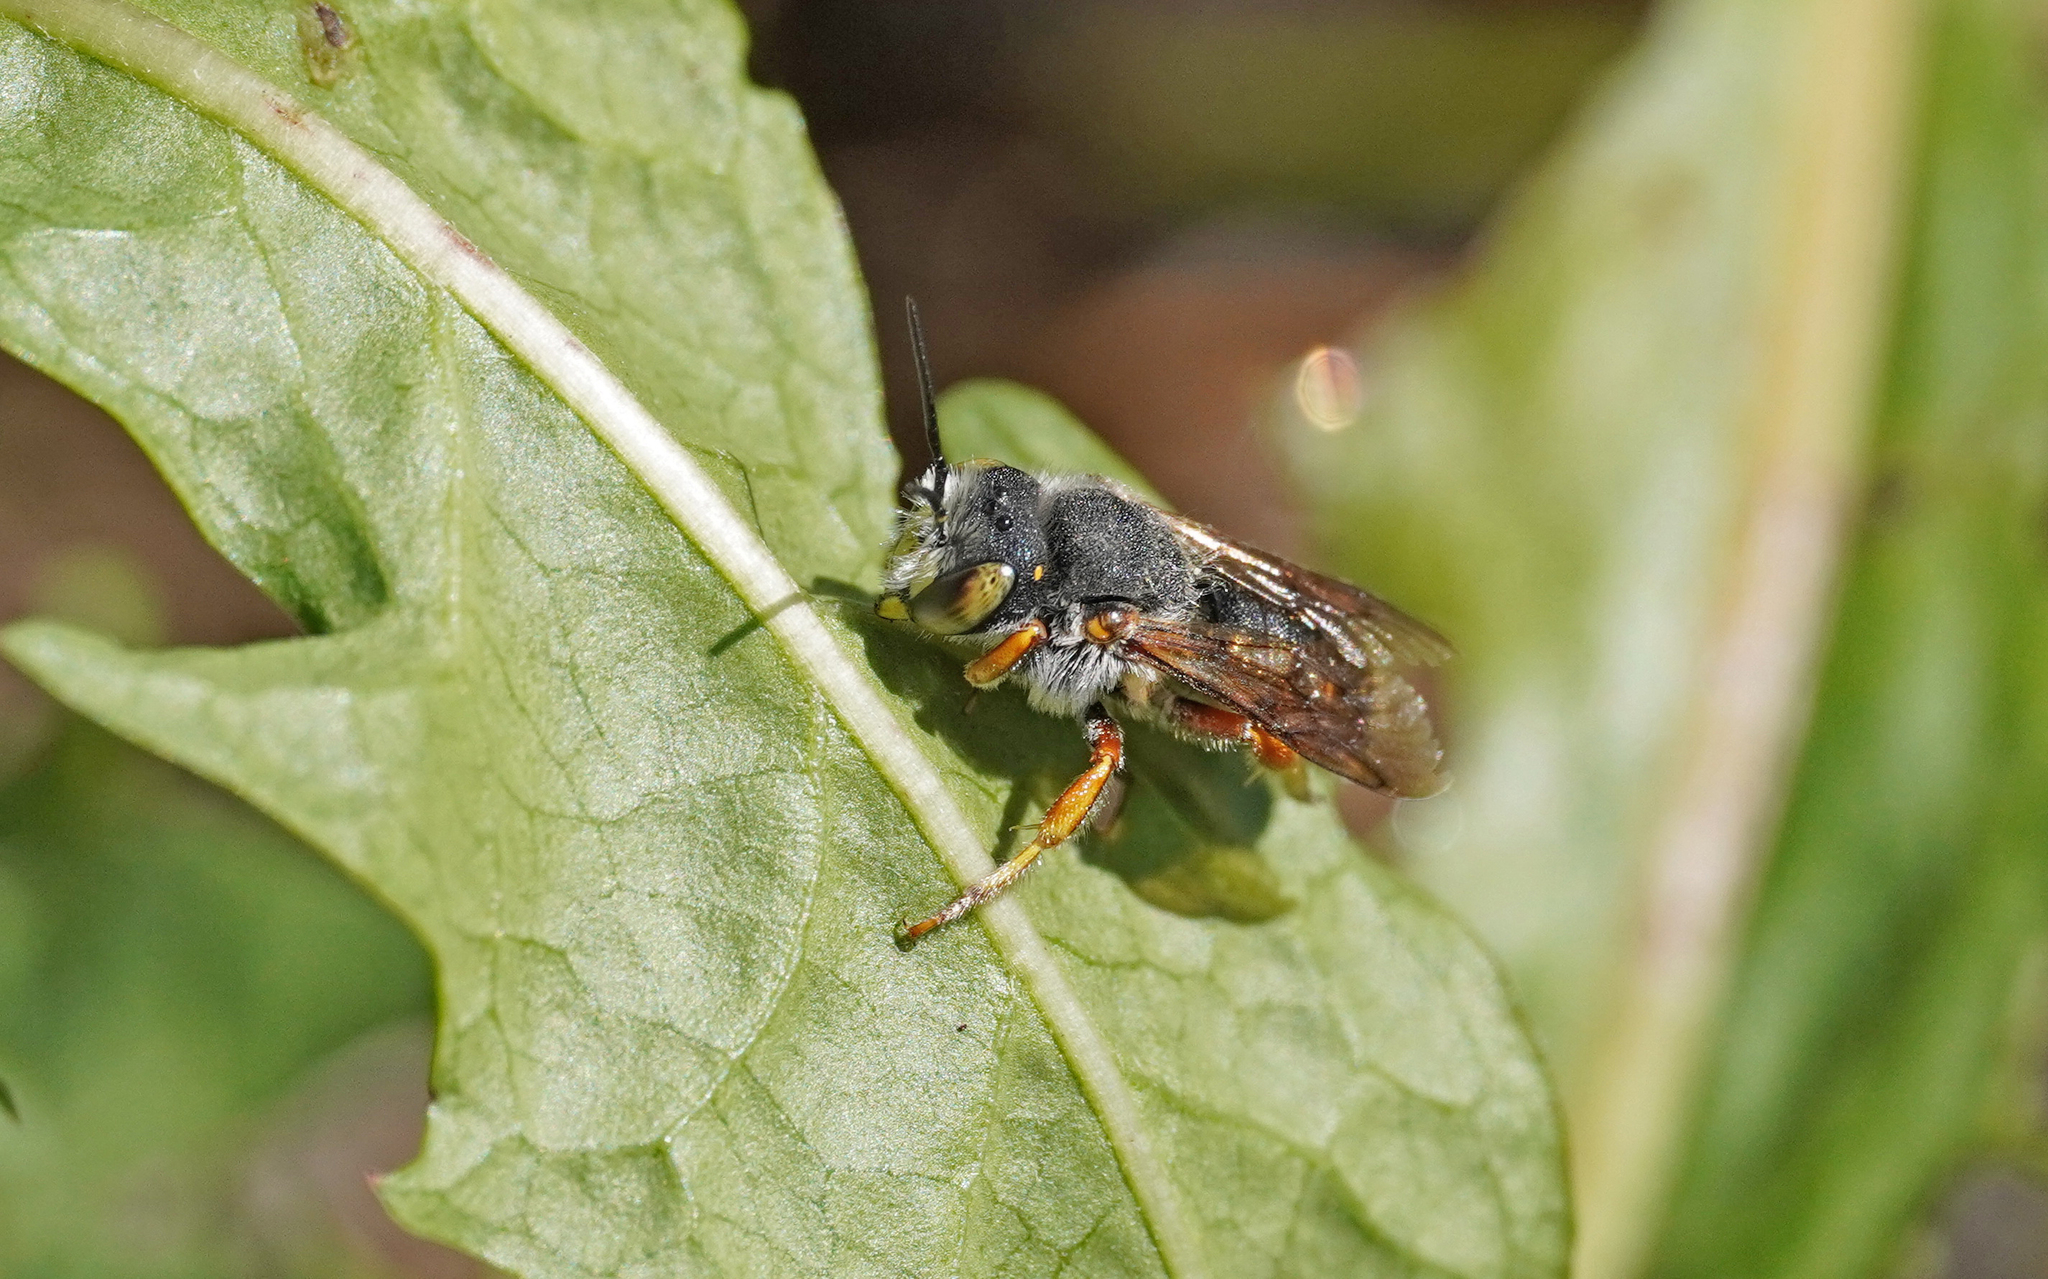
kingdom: Animalia
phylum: Arthropoda
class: Insecta
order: Hymenoptera
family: Megachilidae
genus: Anthidium
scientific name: Anthidium oblongatum
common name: Oblong wool carder bee
